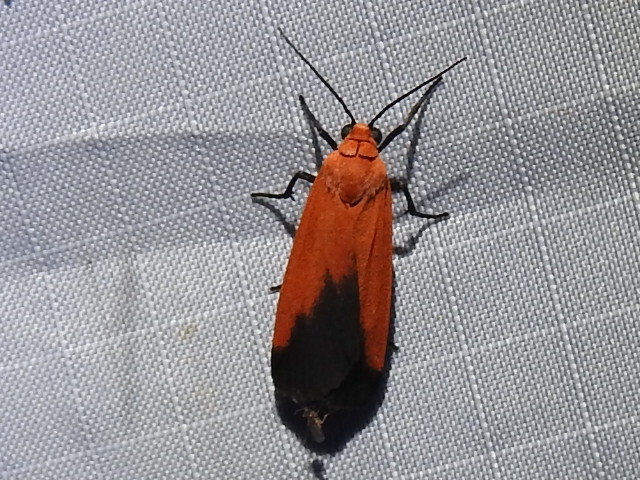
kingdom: Animalia
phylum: Arthropoda
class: Insecta
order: Lepidoptera
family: Erebidae
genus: Ptychoglene
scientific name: Ptychoglene coccinea
